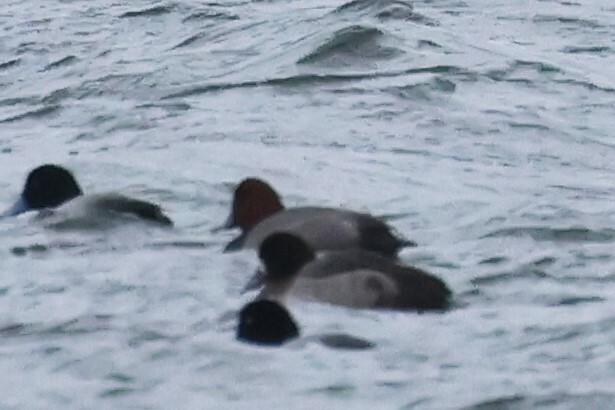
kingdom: Animalia
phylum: Chordata
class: Aves
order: Anseriformes
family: Anatidae
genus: Aythya
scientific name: Aythya americana
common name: Redhead
